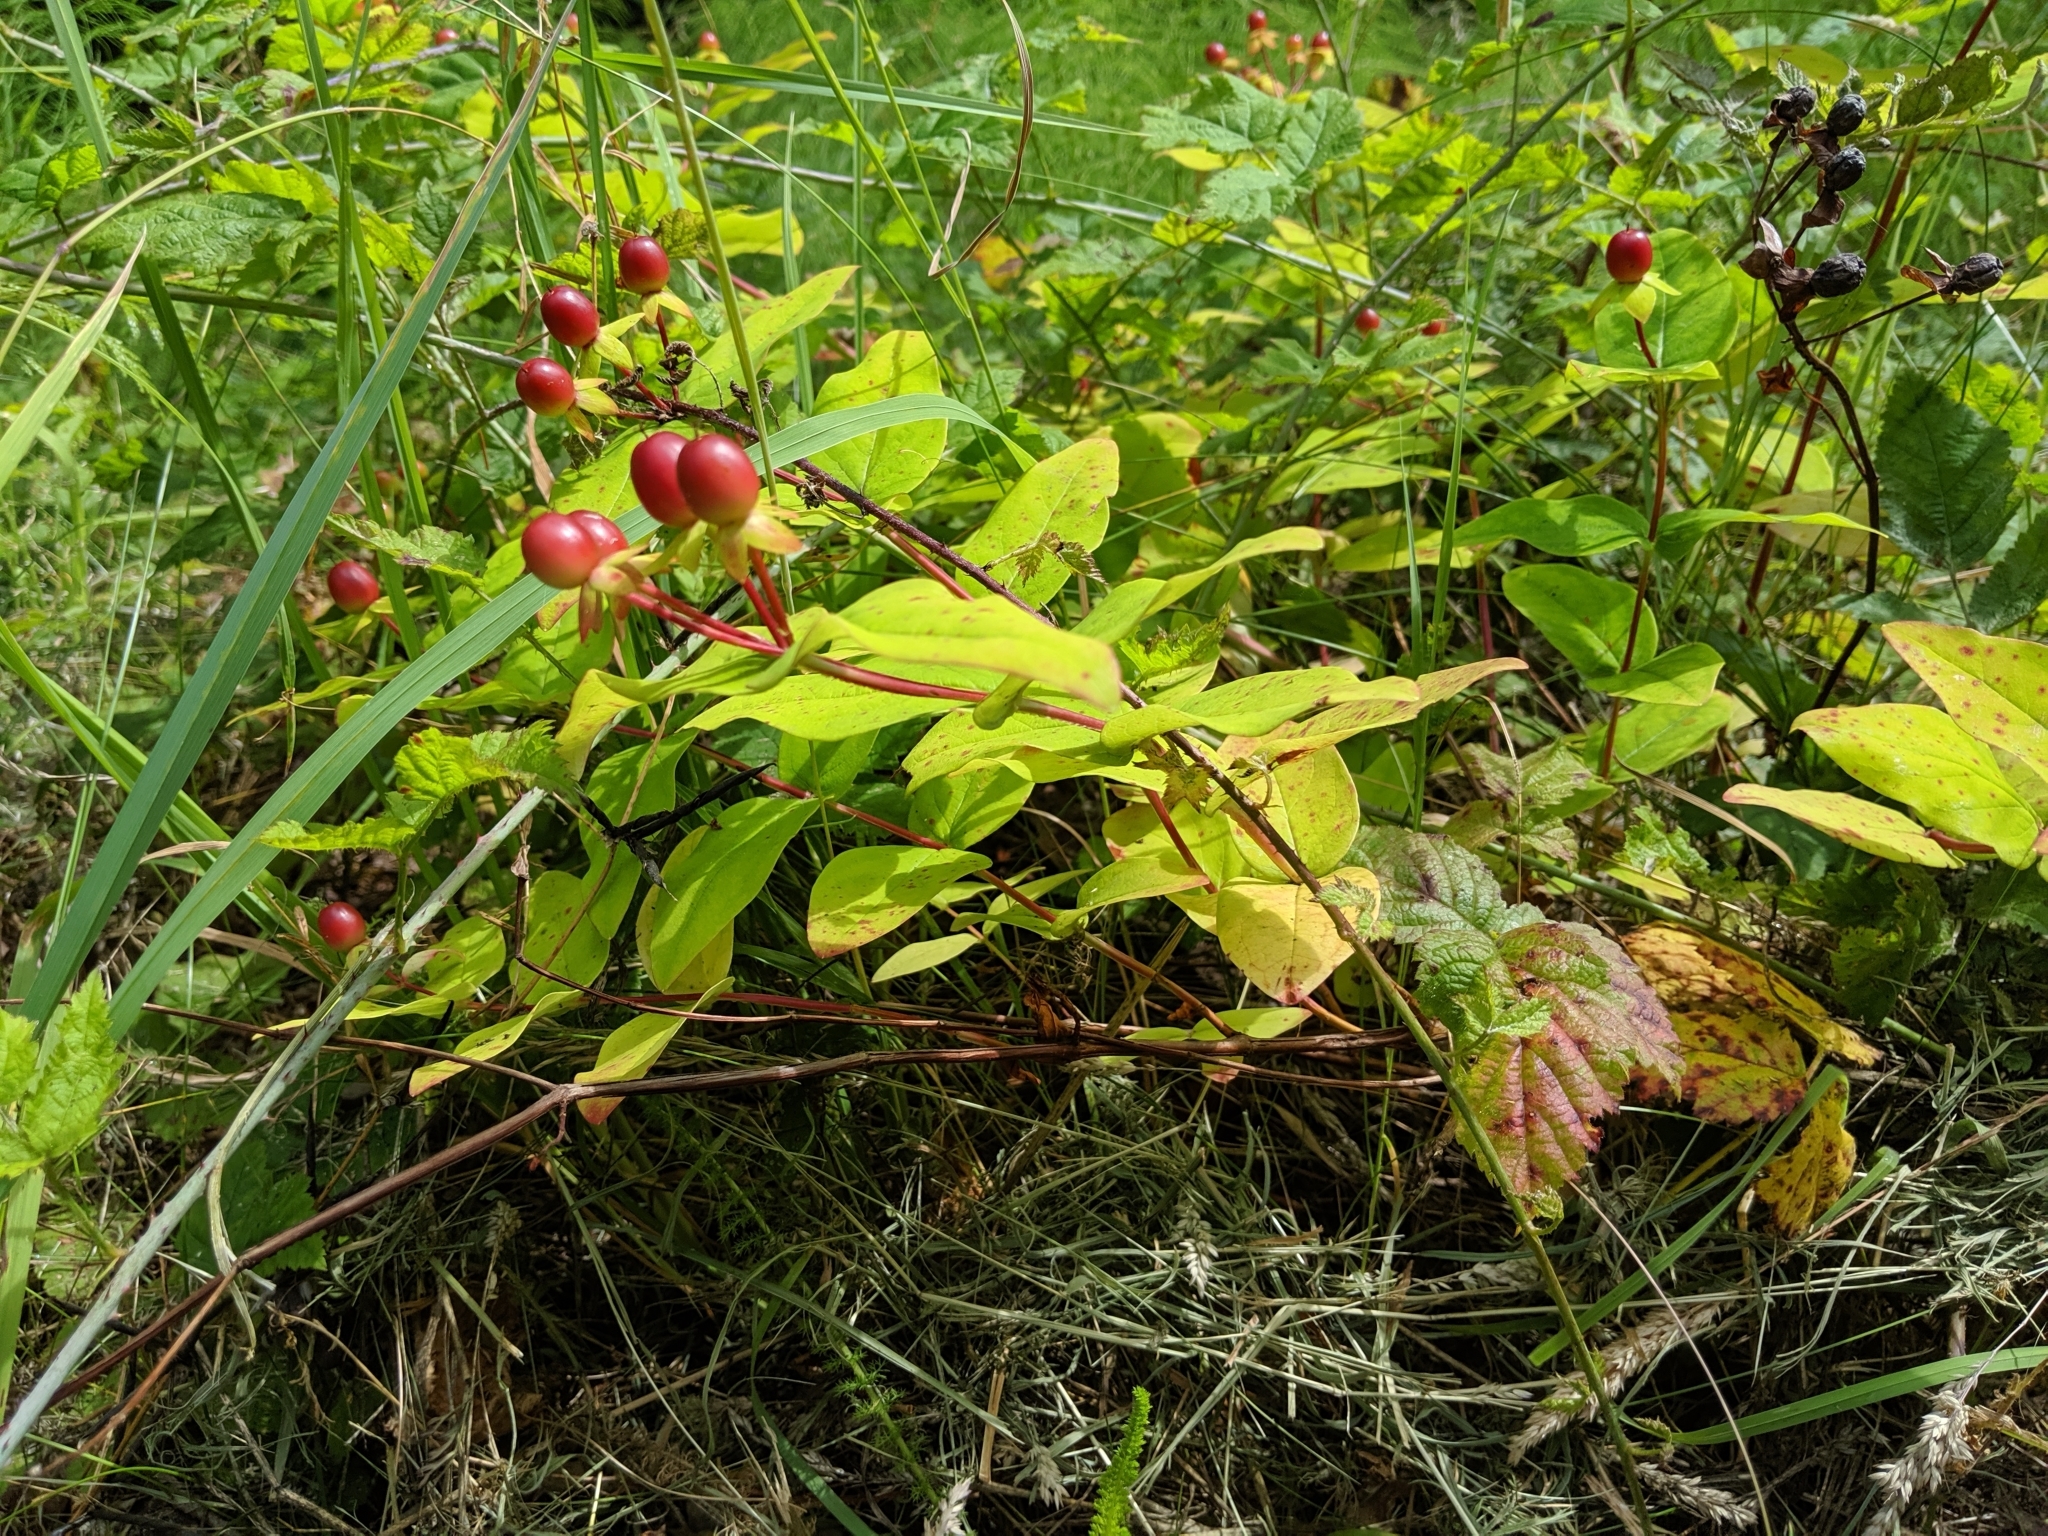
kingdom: Plantae
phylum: Tracheophyta
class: Magnoliopsida
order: Malpighiales
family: Hypericaceae
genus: Hypericum
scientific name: Hypericum androsaemum
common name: Sweet-amber
